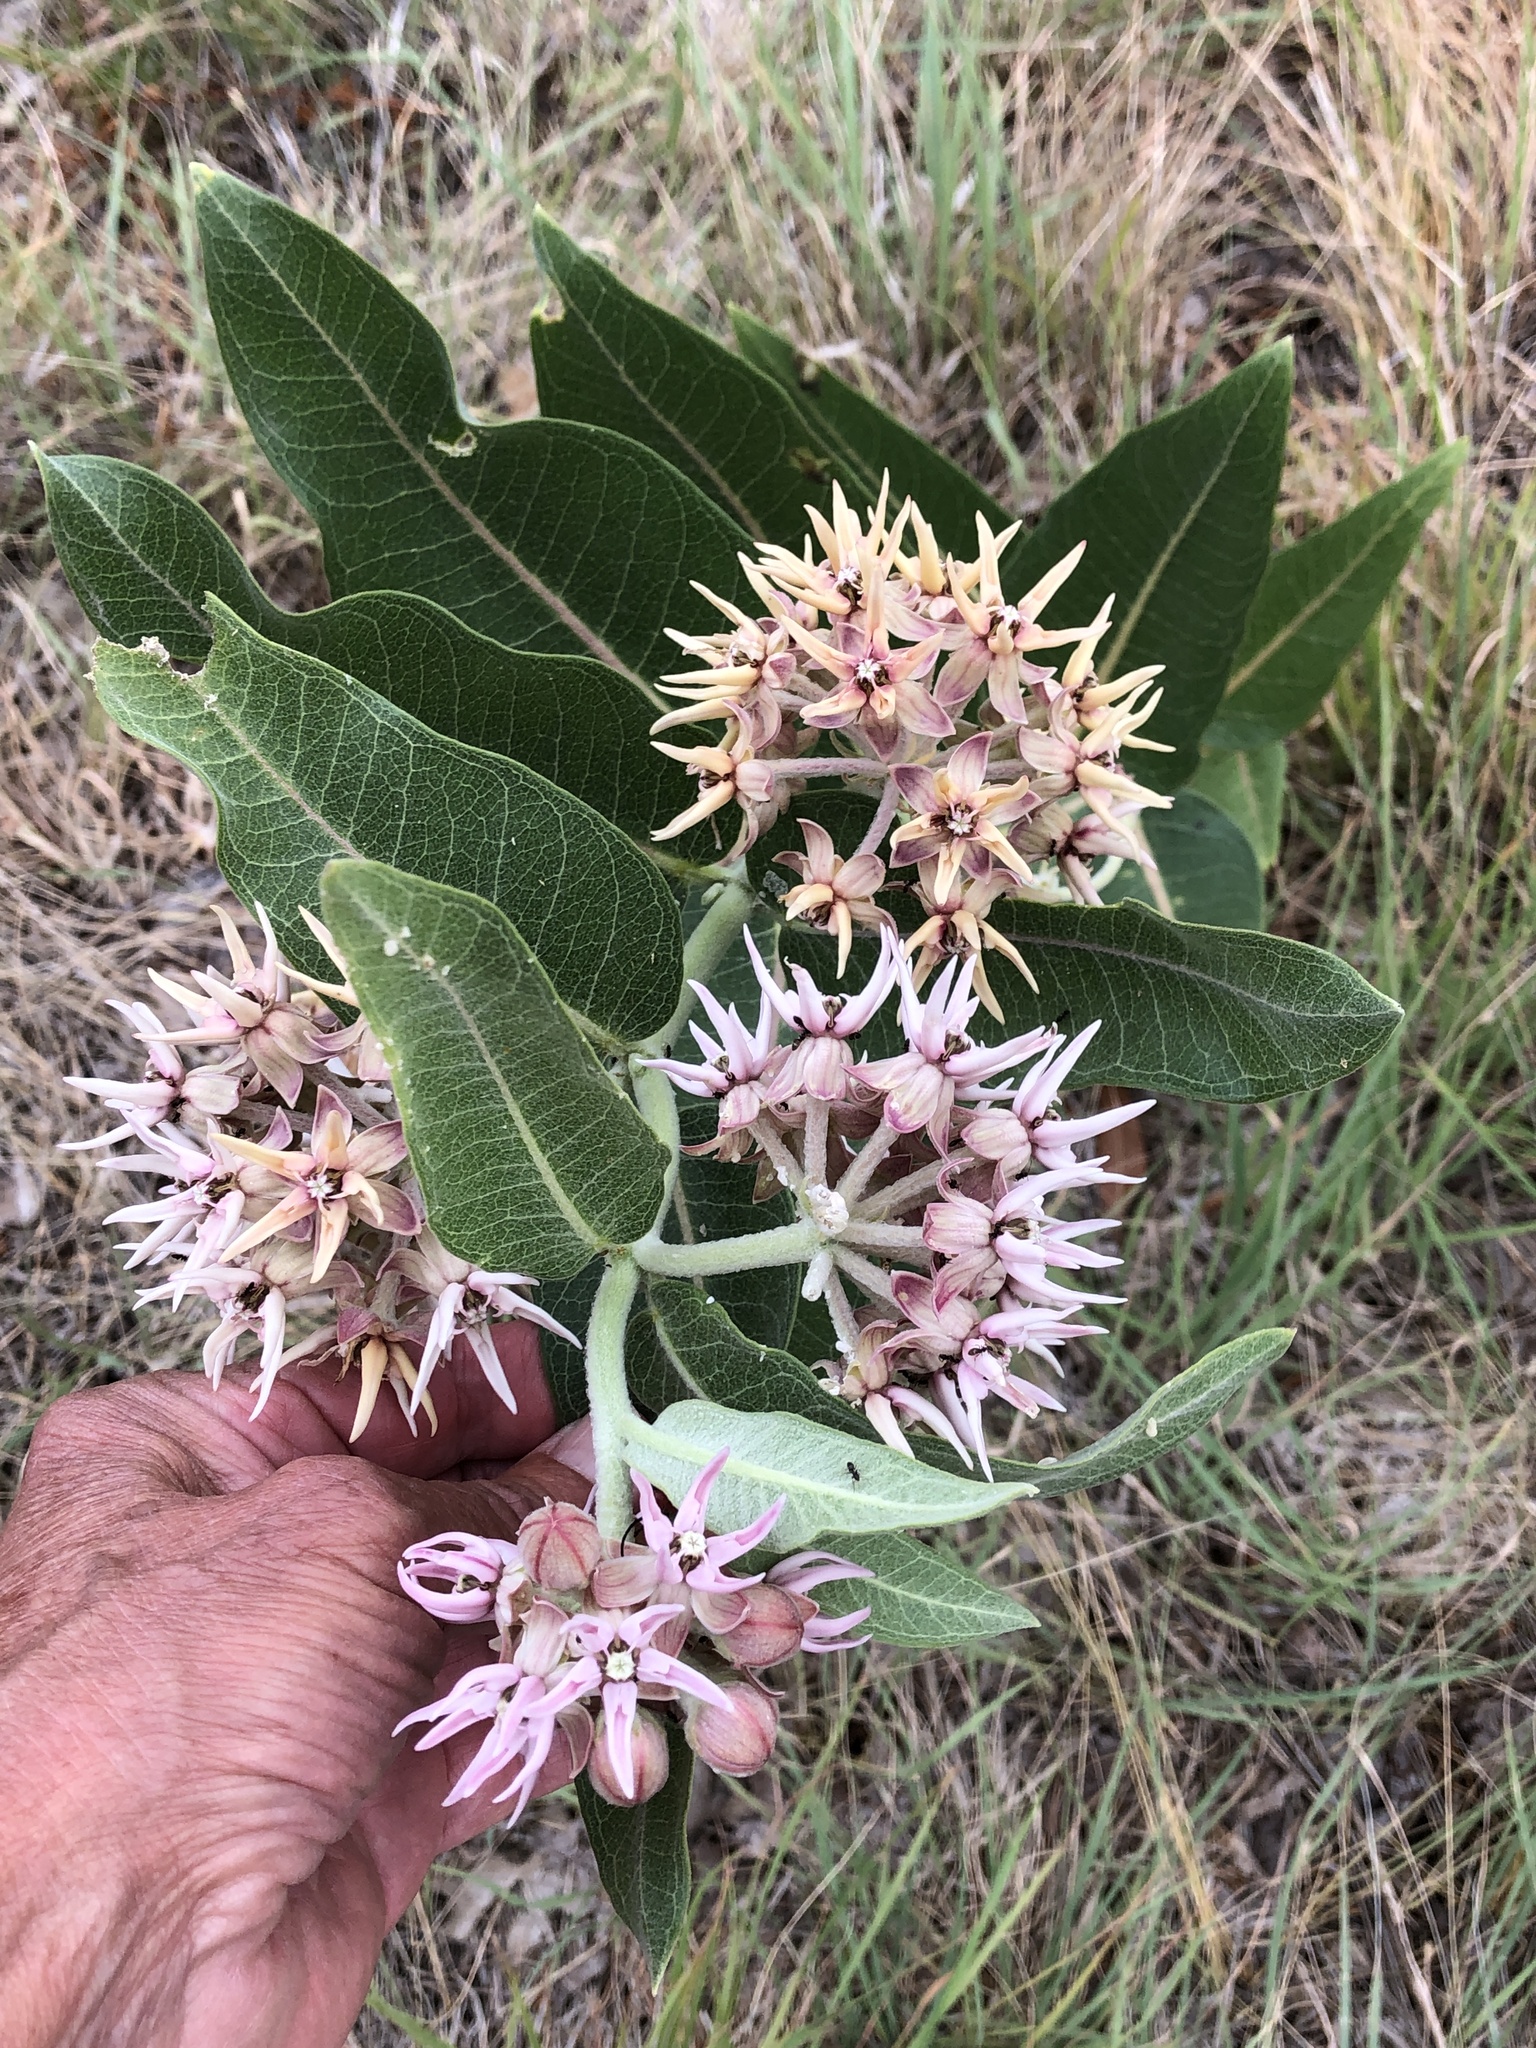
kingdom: Plantae
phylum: Tracheophyta
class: Magnoliopsida
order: Gentianales
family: Apocynaceae
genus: Asclepias
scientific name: Asclepias speciosa
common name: Showy milkweed
